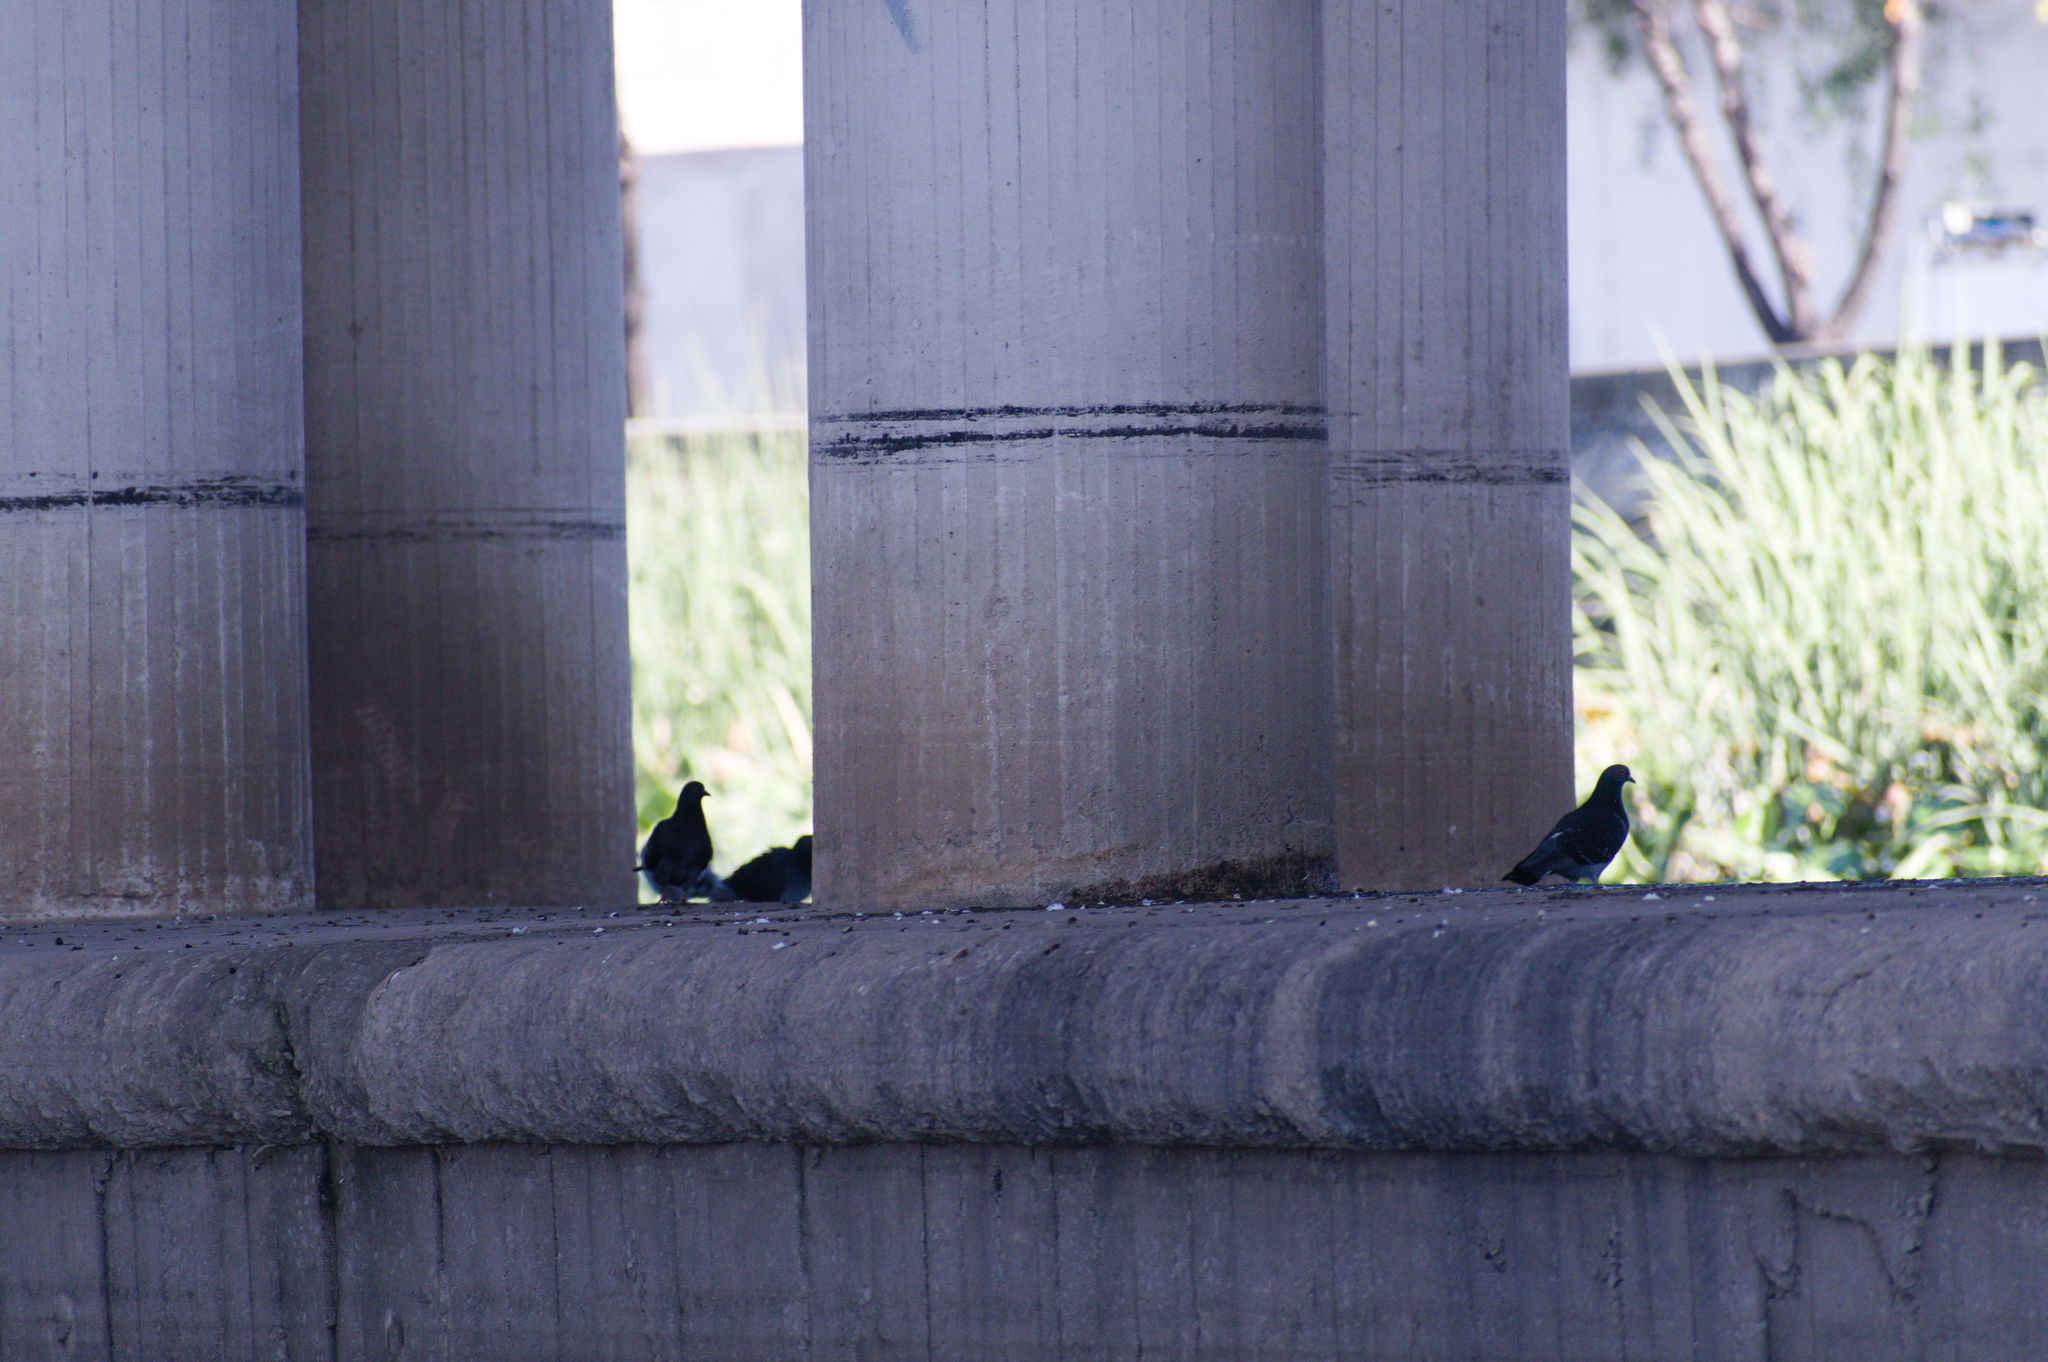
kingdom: Animalia
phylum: Chordata
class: Aves
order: Columbiformes
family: Columbidae
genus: Columba
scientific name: Columba livia
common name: Rock pigeon
